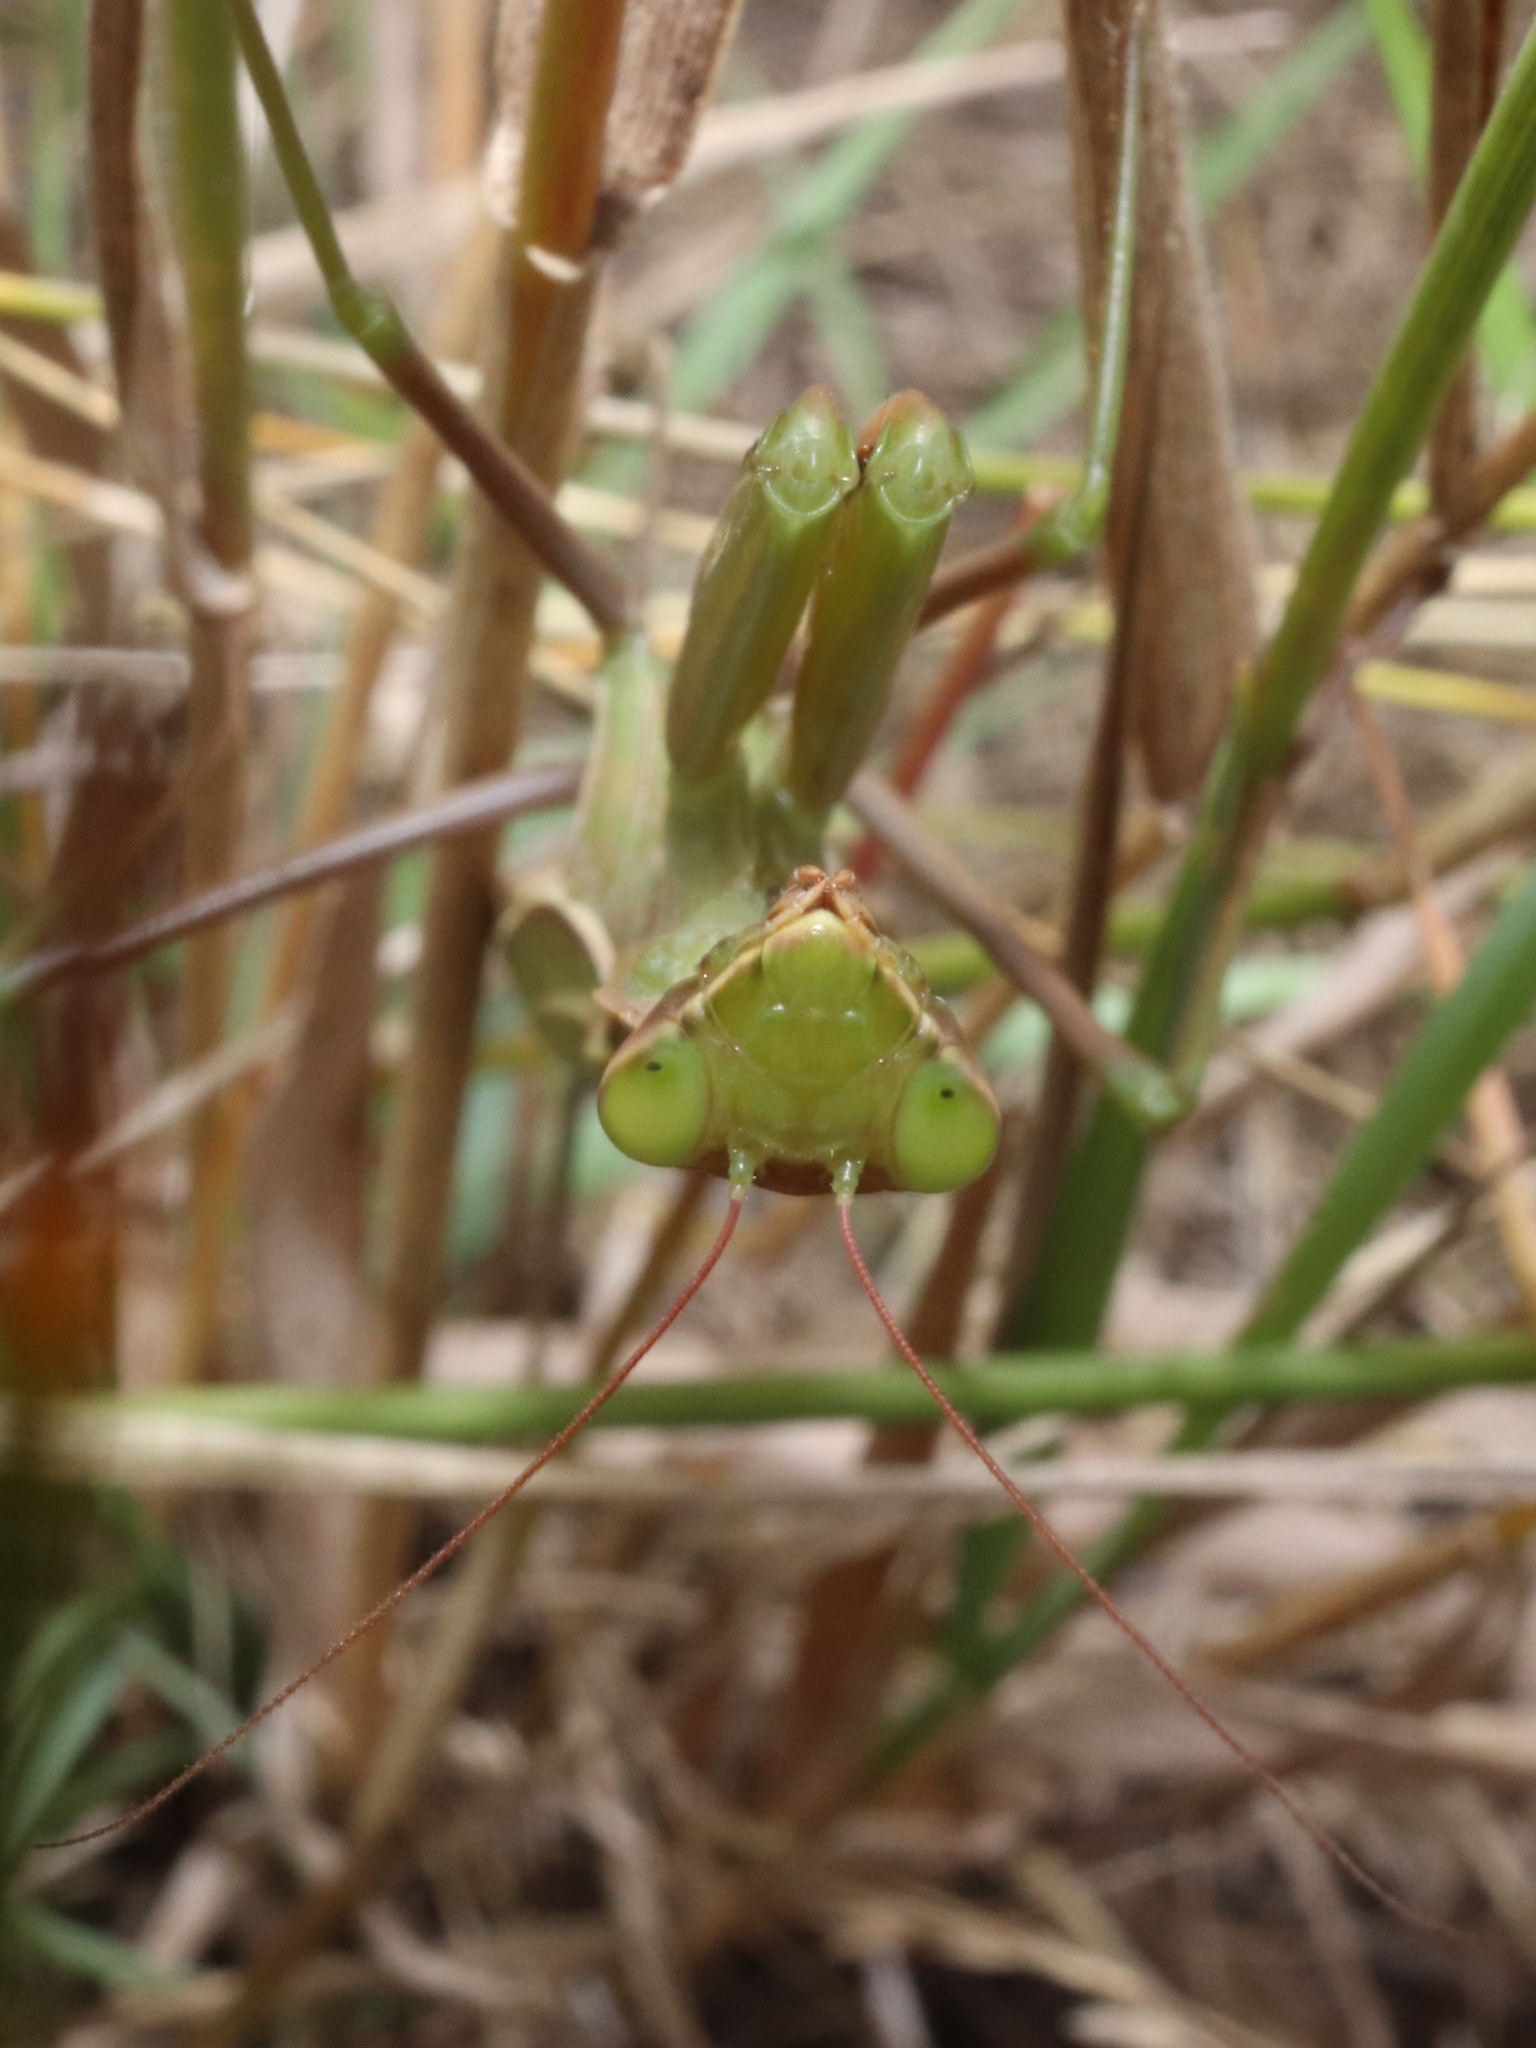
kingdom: Animalia
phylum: Arthropoda
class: Insecta
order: Mantodea
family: Mantidae
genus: Mantis
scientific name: Mantis religiosa
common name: Praying mantis
